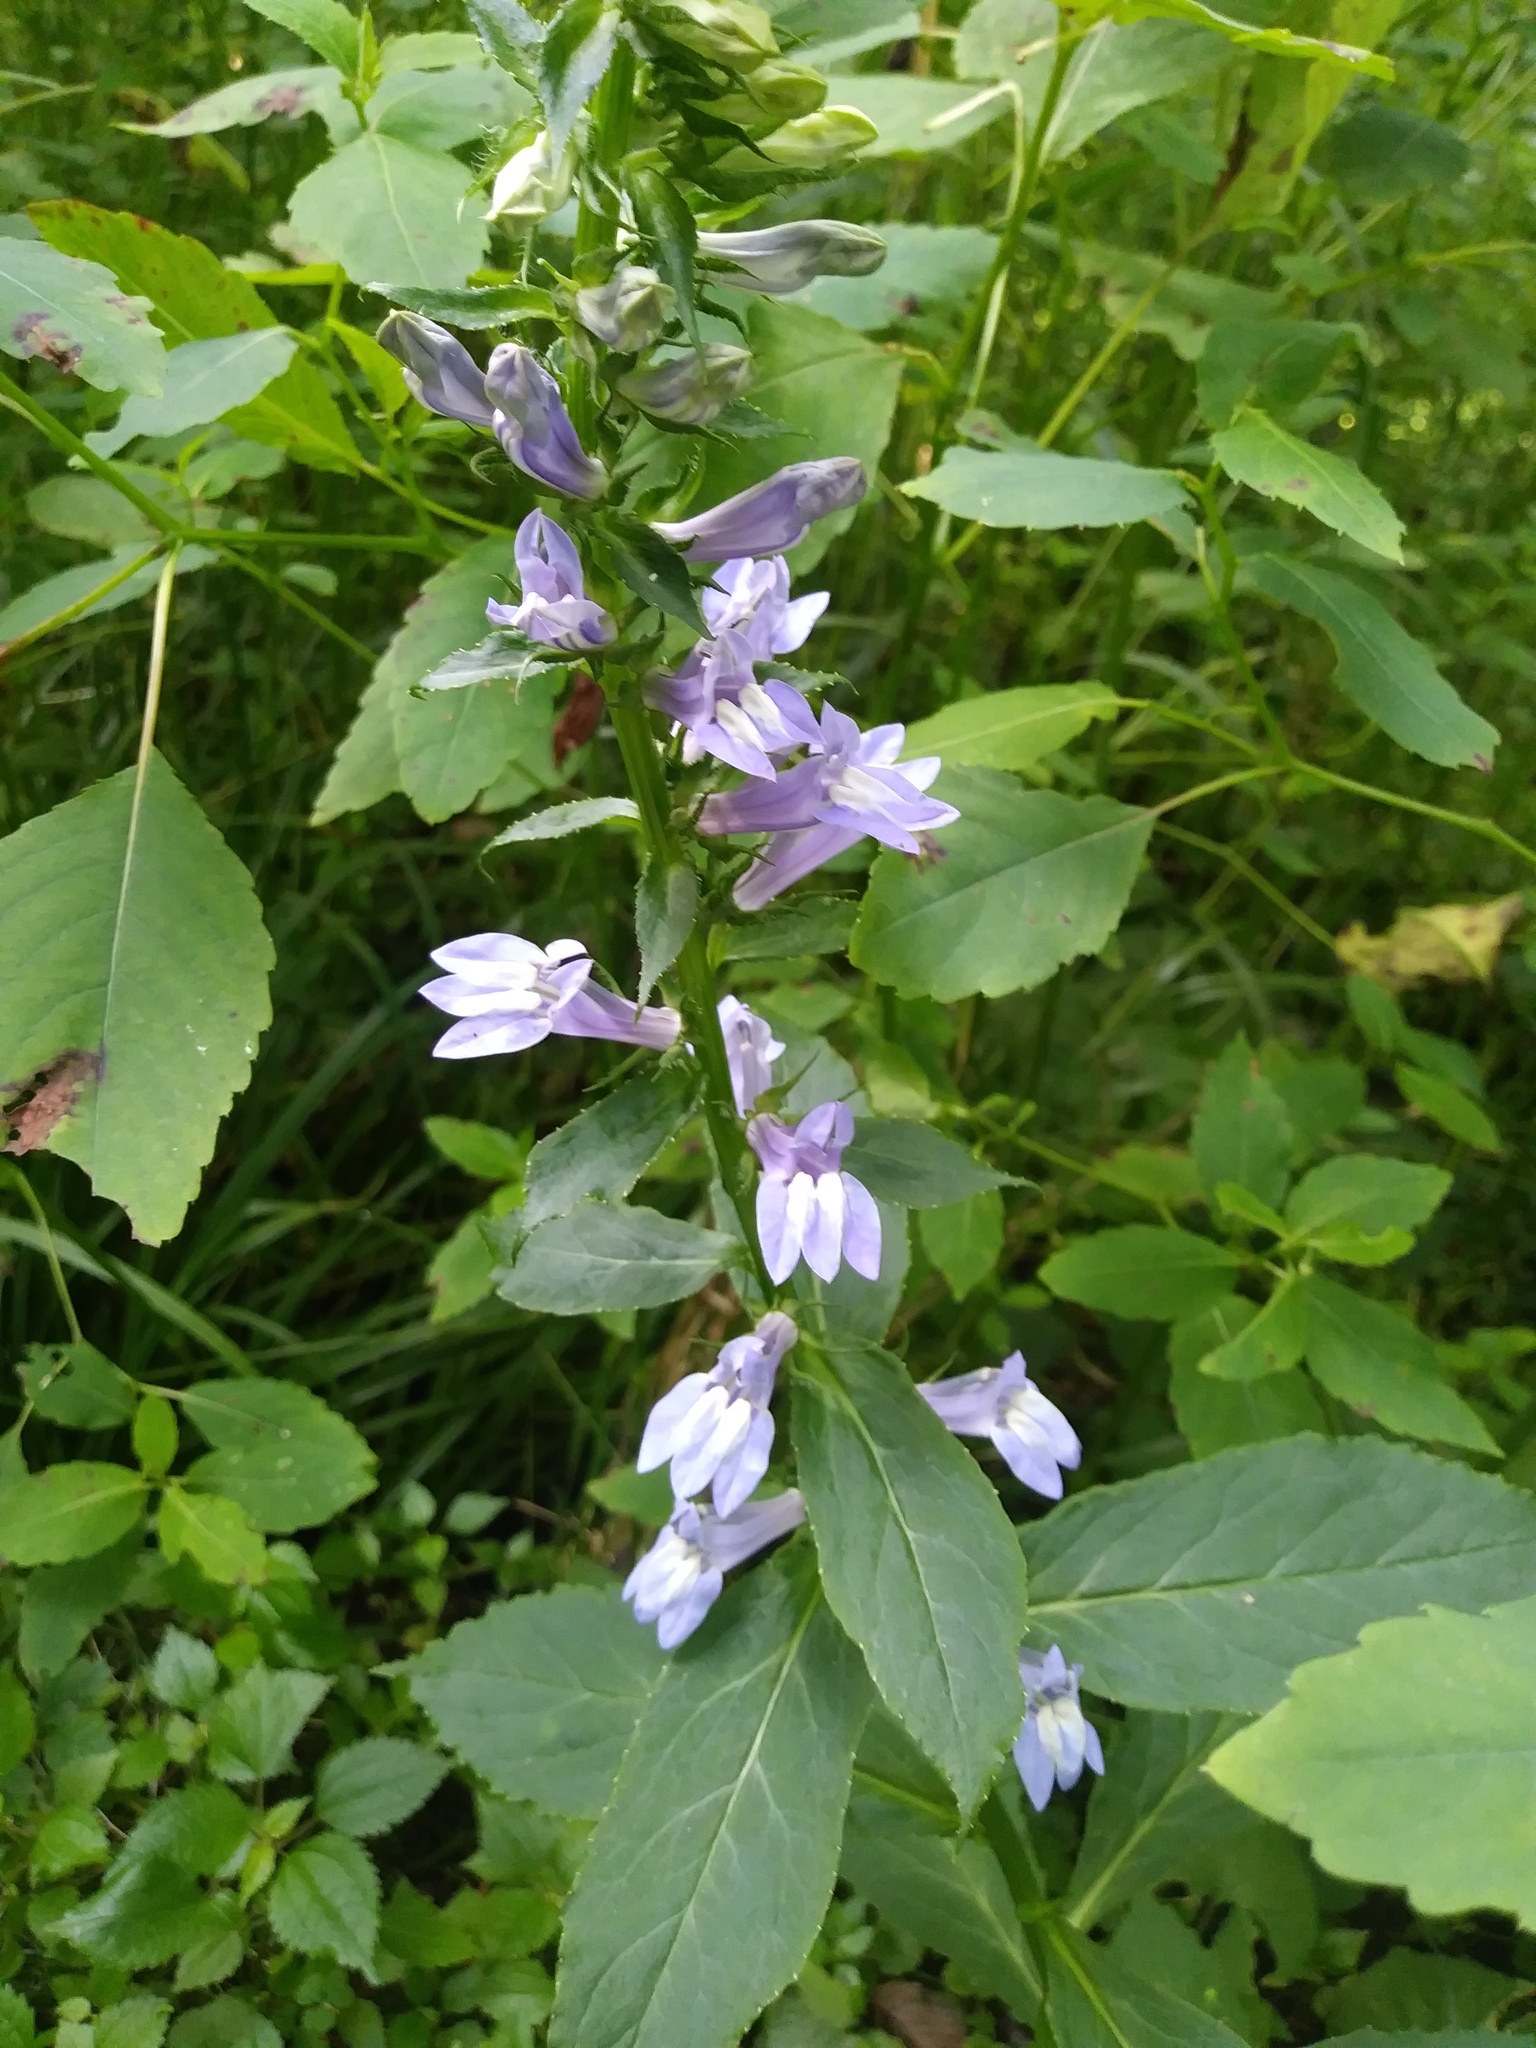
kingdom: Plantae
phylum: Tracheophyta
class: Magnoliopsida
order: Asterales
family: Campanulaceae
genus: Lobelia
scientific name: Lobelia siphilitica
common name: Great lobelia
